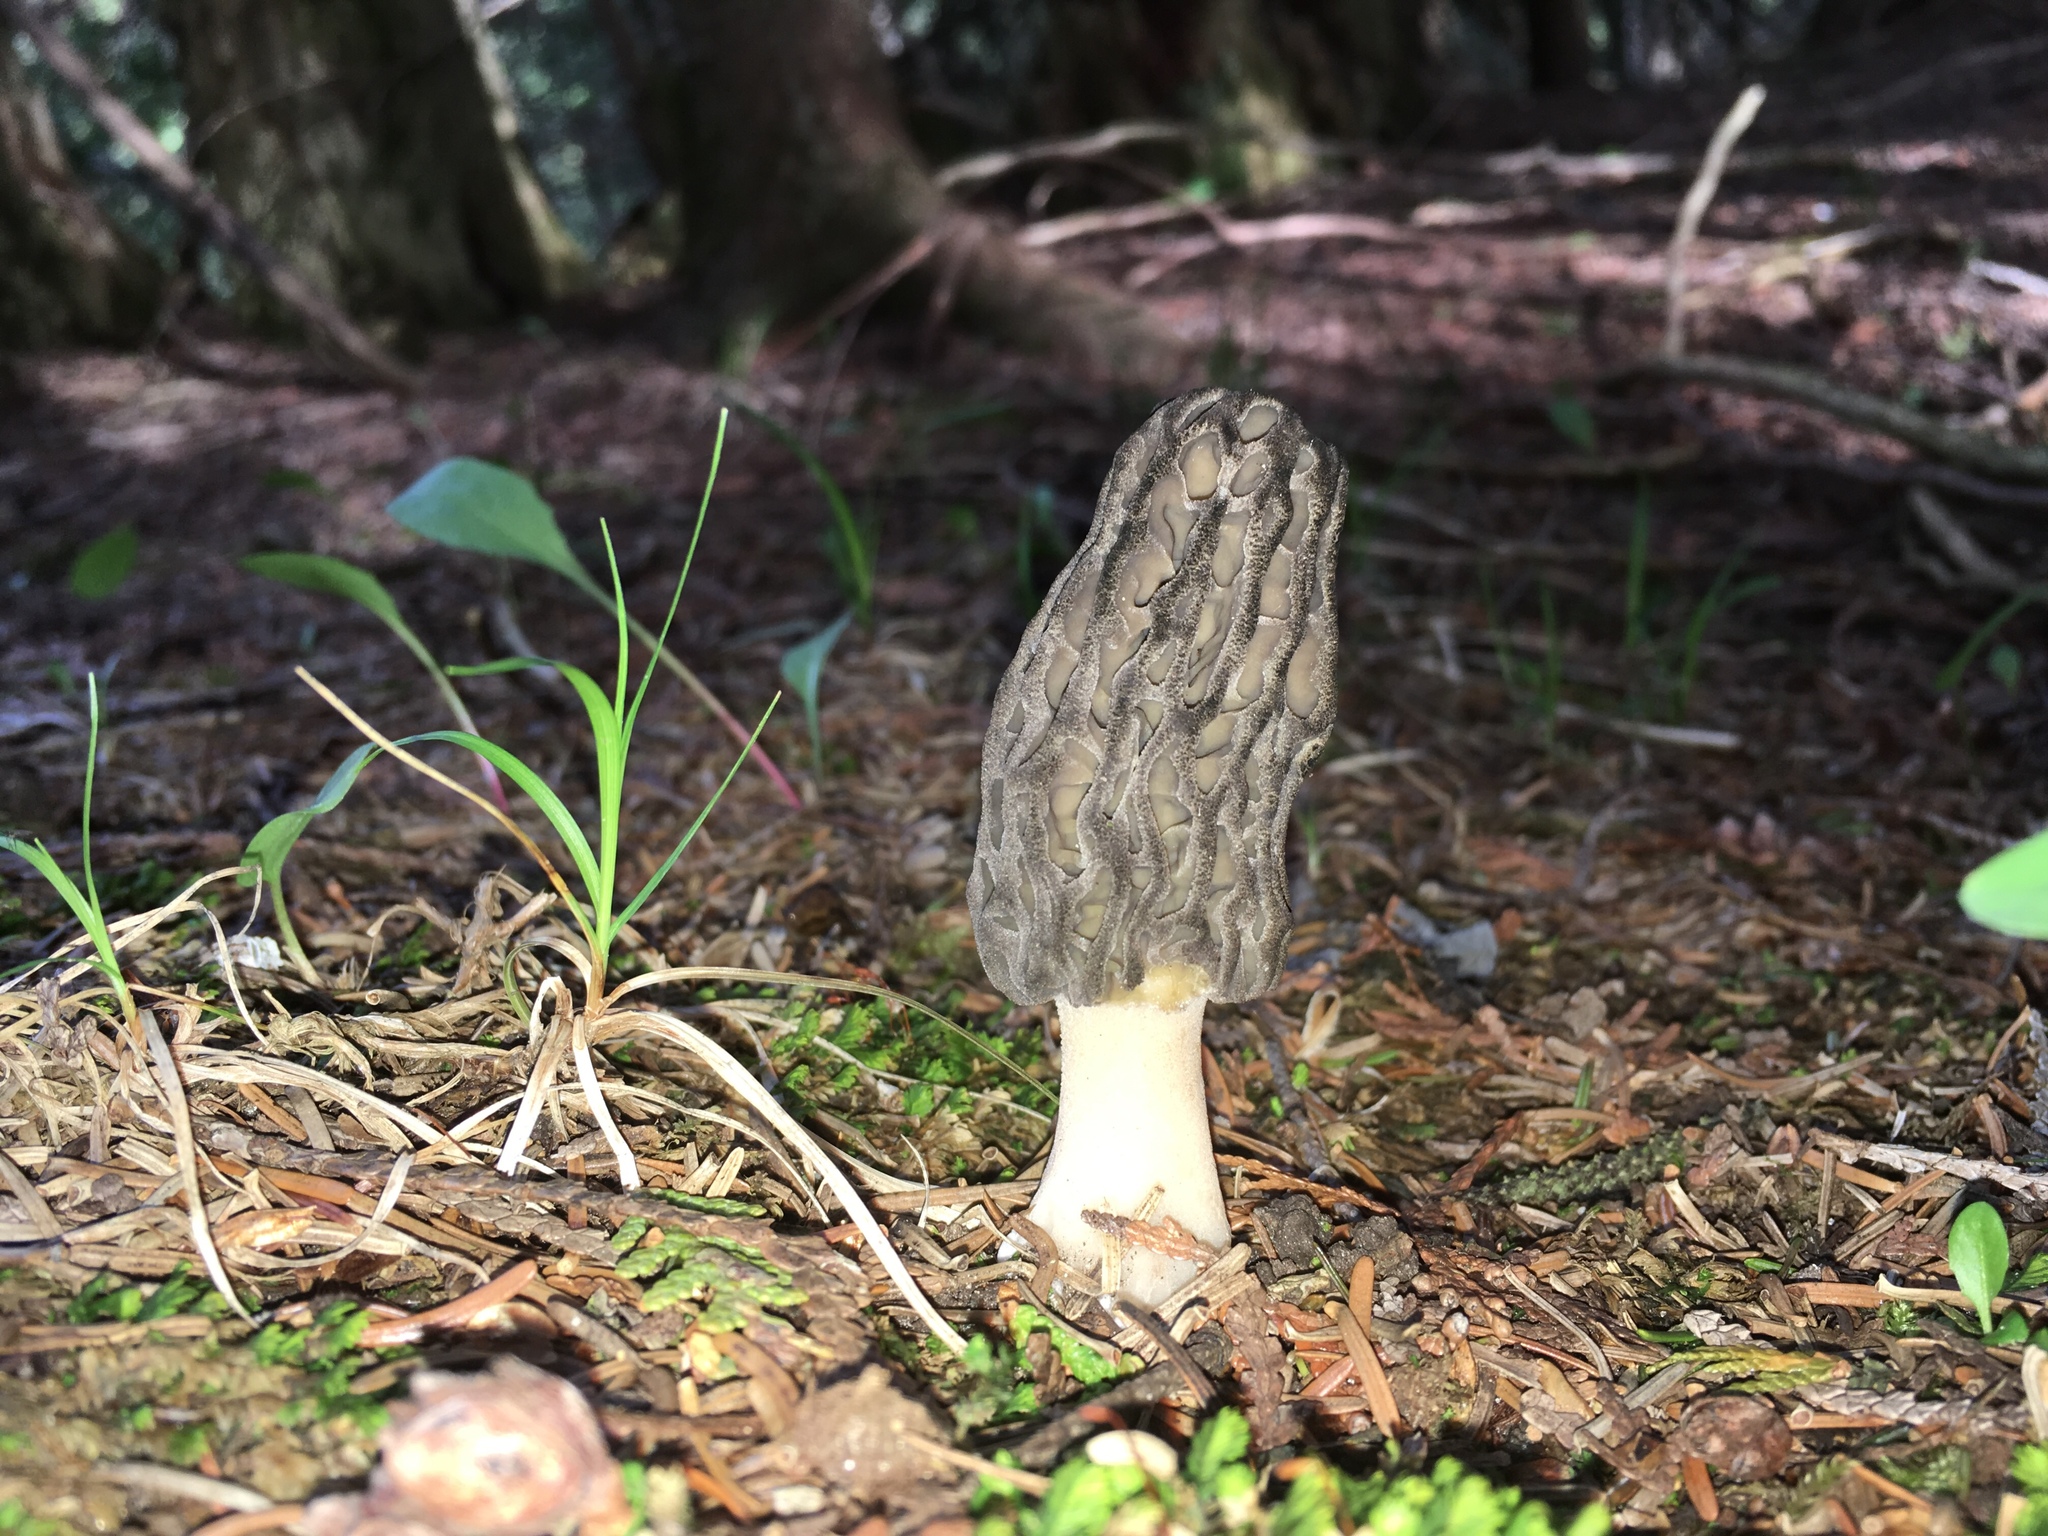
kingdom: Fungi
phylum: Ascomycota
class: Pezizomycetes
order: Pezizales
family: Morchellaceae
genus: Morchella
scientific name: Morchella angusticeps
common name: Black morel
